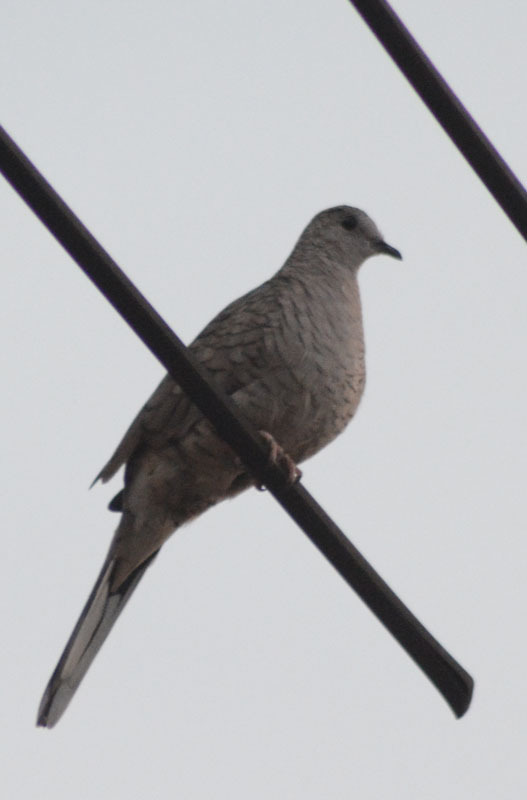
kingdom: Animalia
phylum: Chordata
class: Aves
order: Columbiformes
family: Columbidae
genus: Columbina
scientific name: Columbina inca
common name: Inca dove
